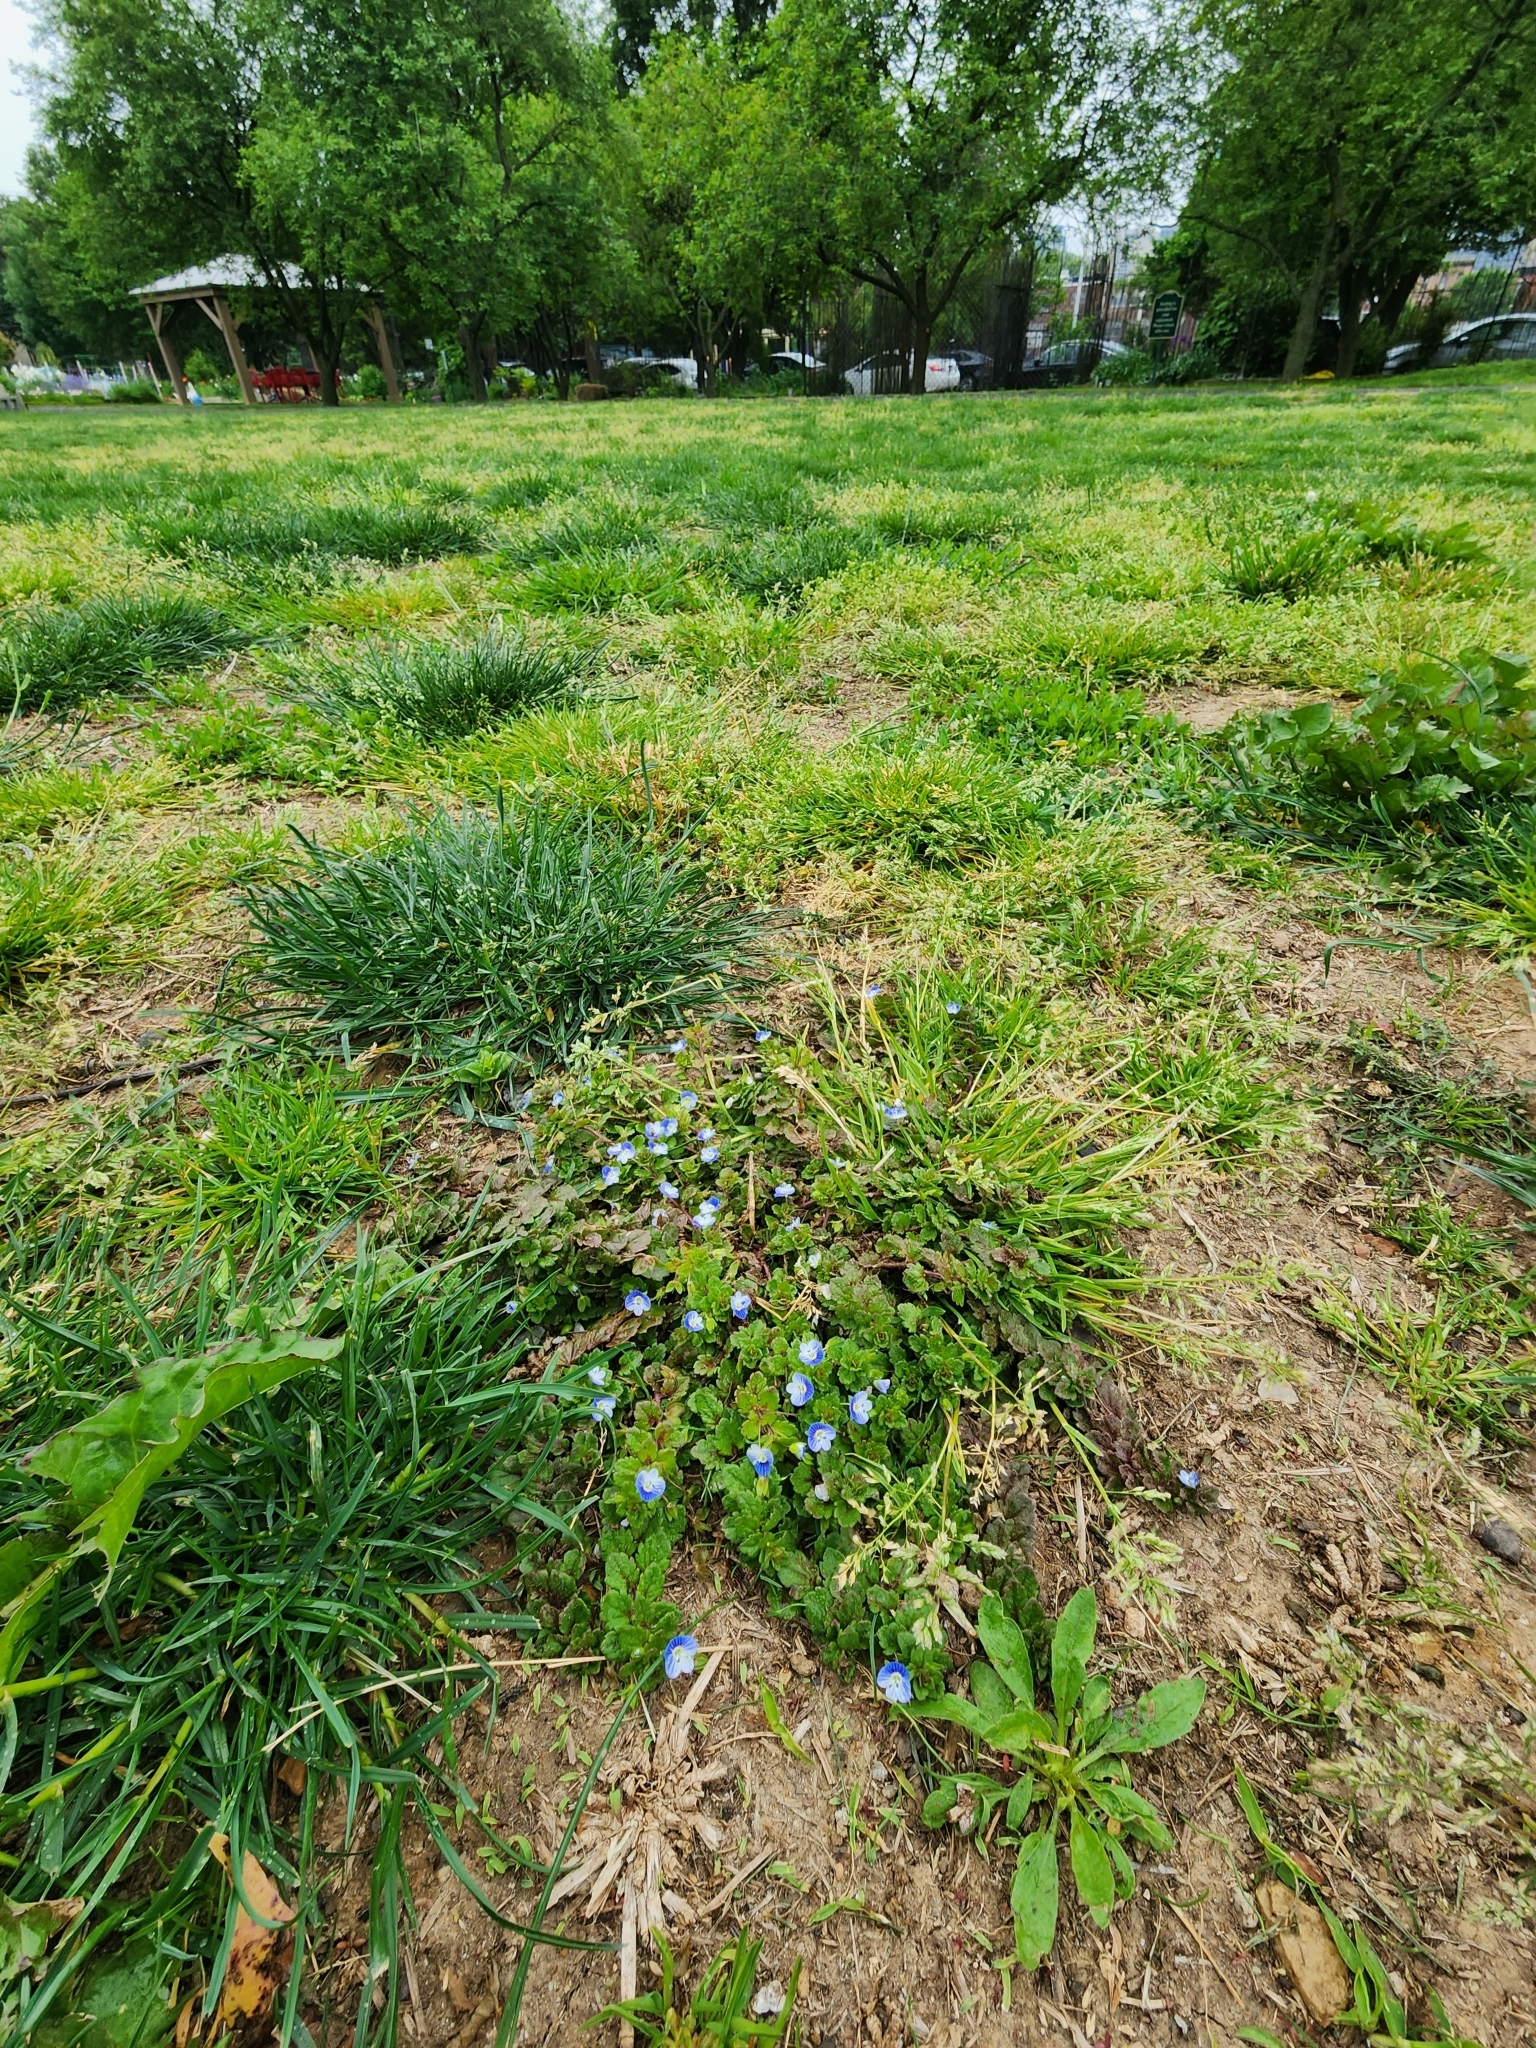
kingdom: Plantae
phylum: Tracheophyta
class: Magnoliopsida
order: Lamiales
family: Plantaginaceae
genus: Veronica
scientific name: Veronica persica
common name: Common field-speedwell
